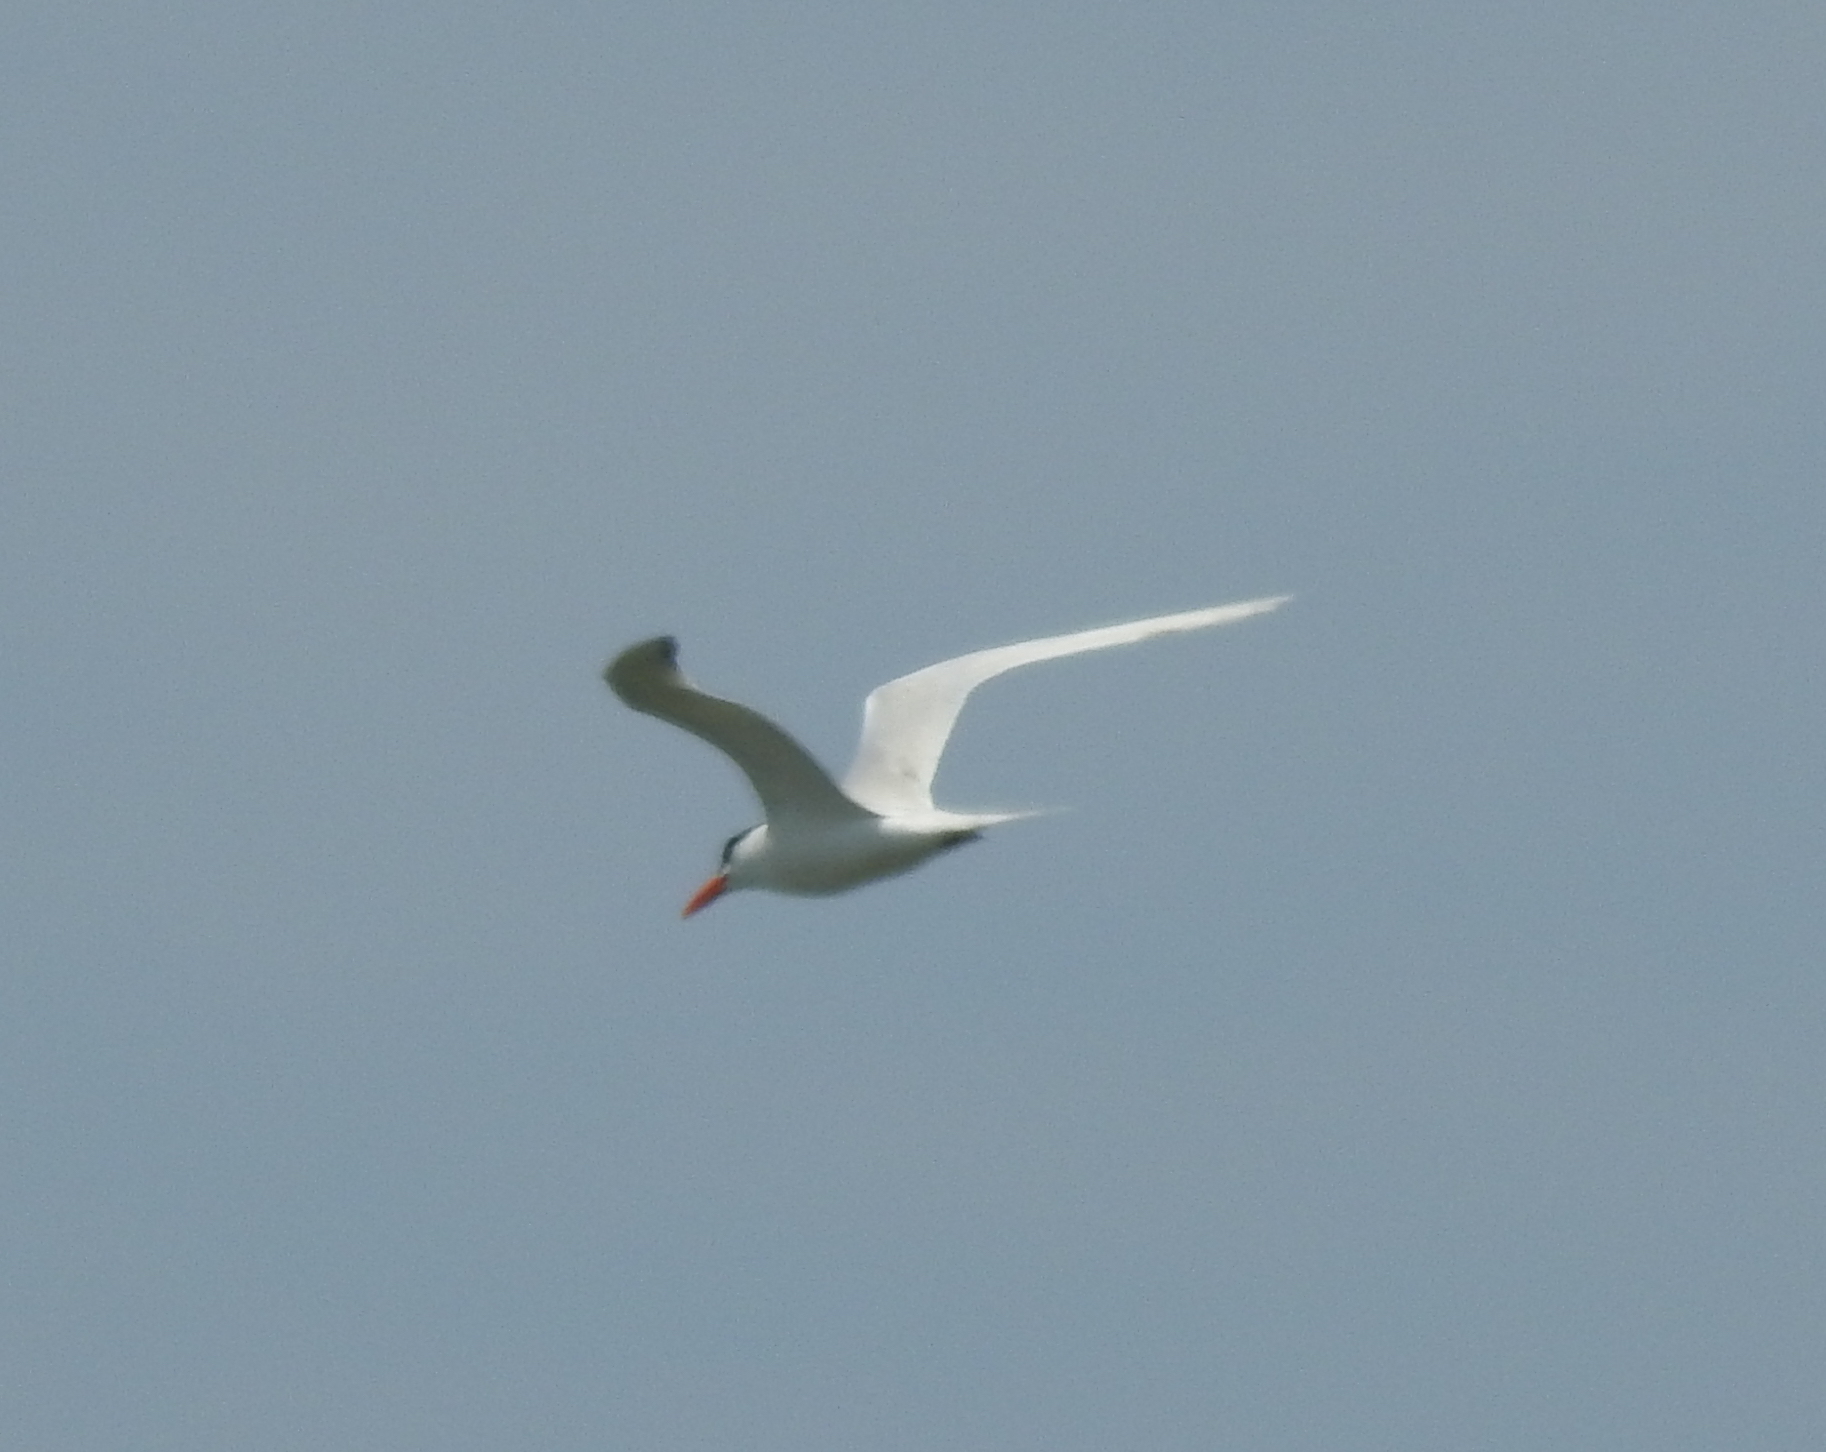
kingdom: Animalia
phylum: Chordata
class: Aves
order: Charadriiformes
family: Laridae
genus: Thalasseus
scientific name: Thalasseus maximus
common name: Royal tern
